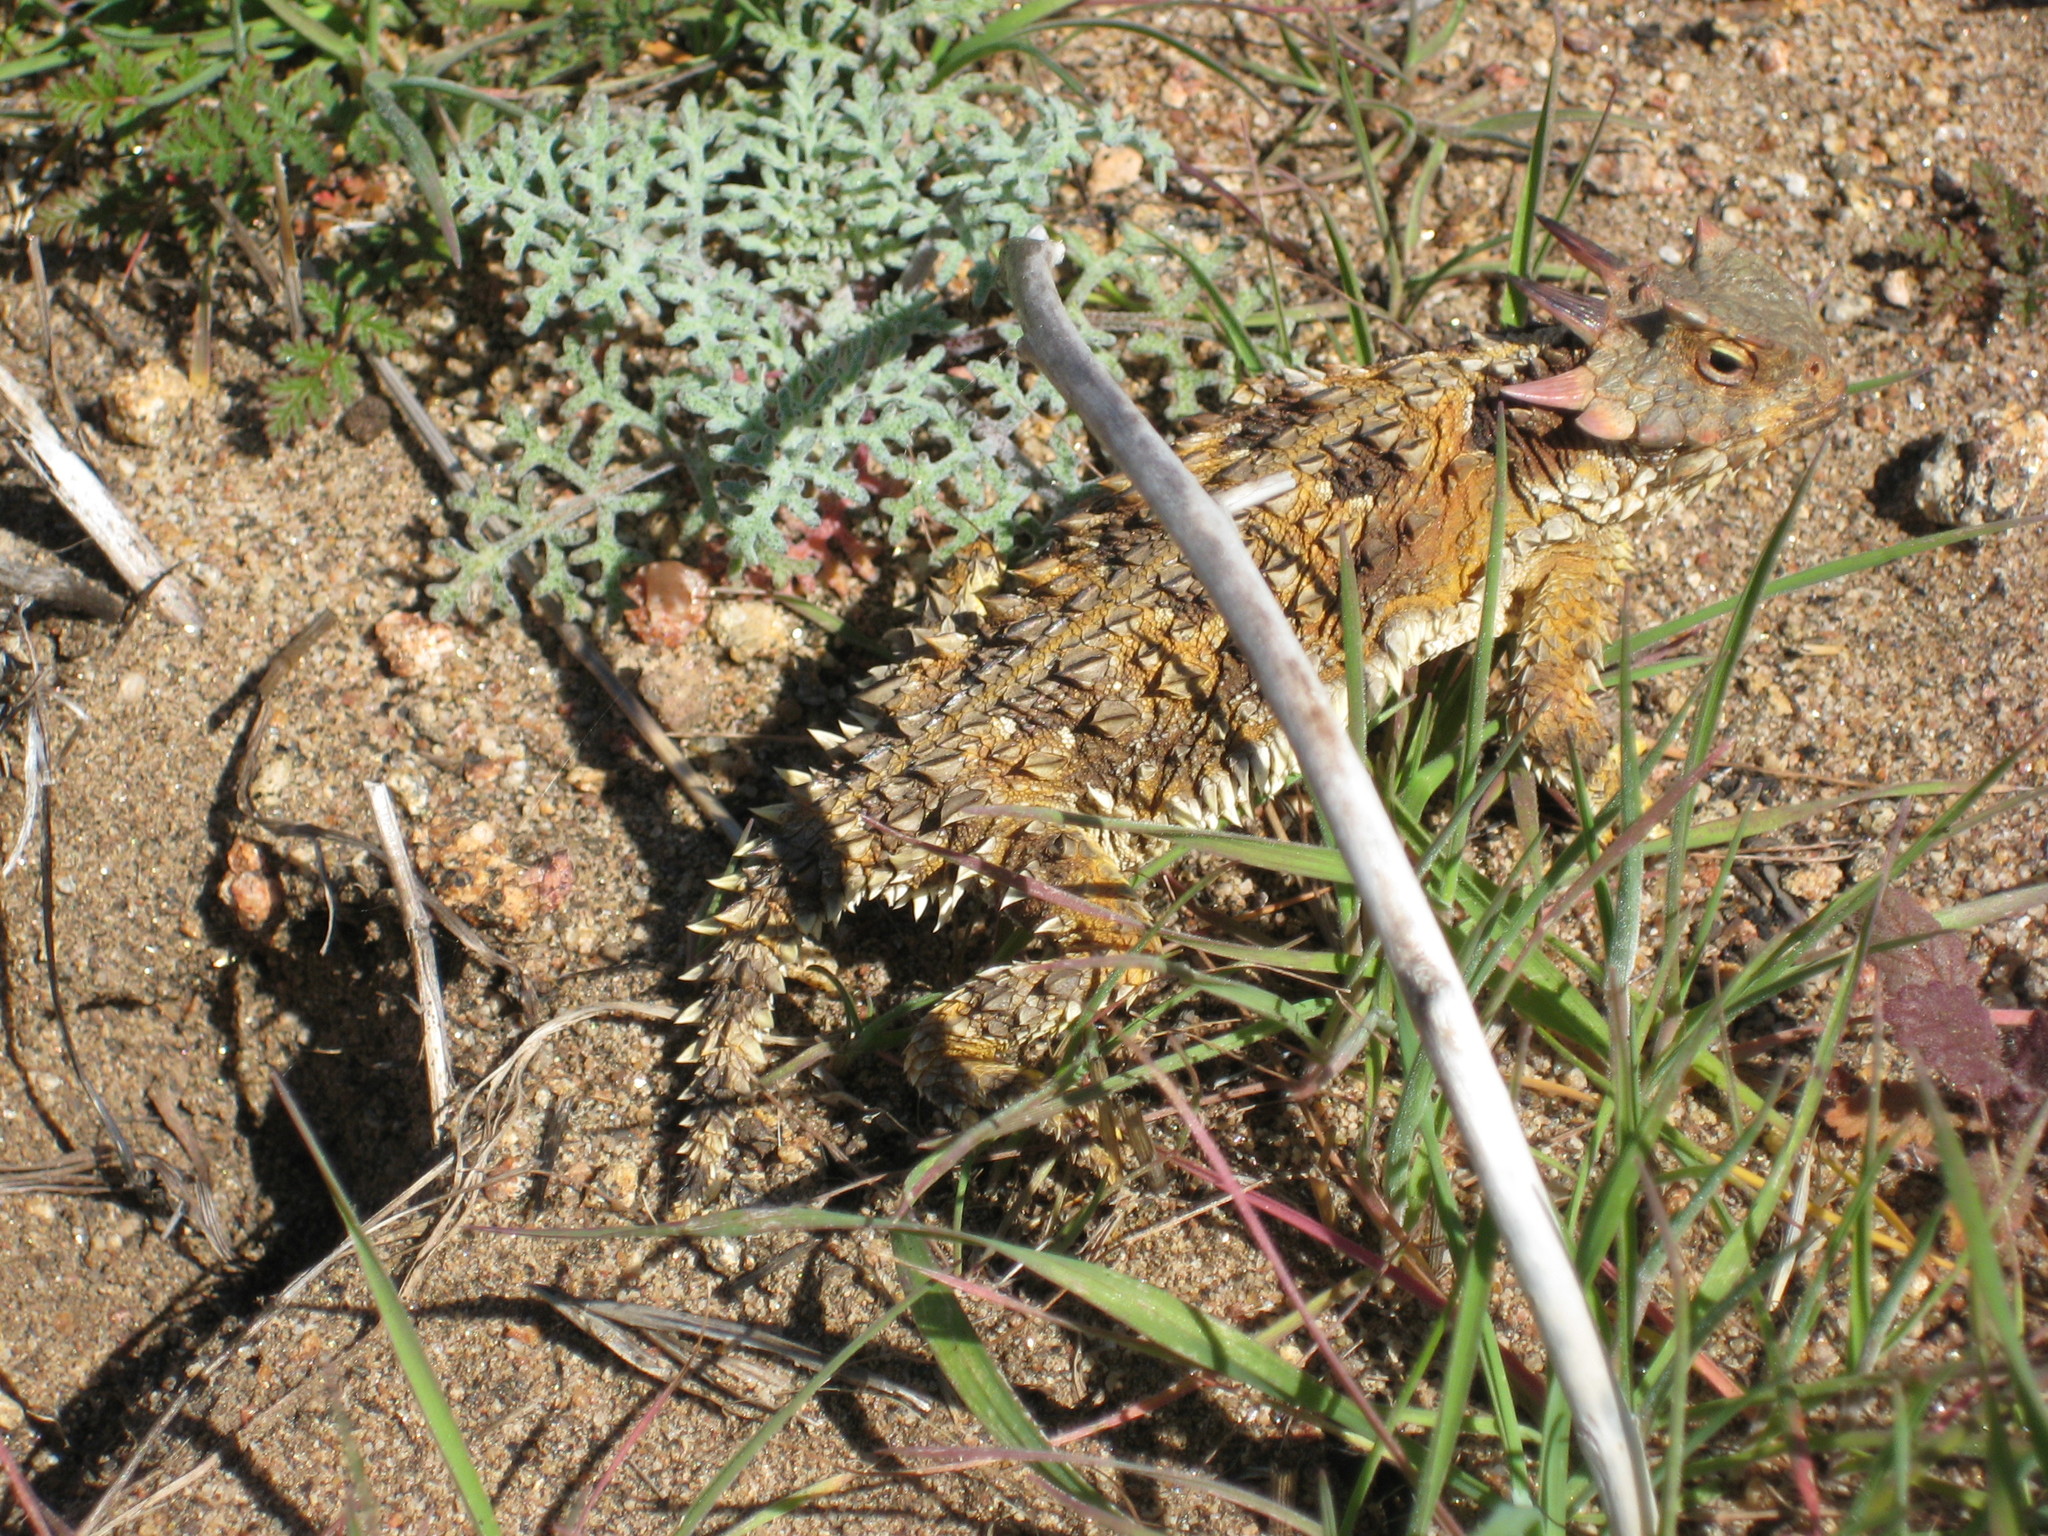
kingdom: Animalia
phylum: Chordata
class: Squamata
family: Phrynosomatidae
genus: Phrynosoma
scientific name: Phrynosoma blainvillii
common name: San diego horned lizard
